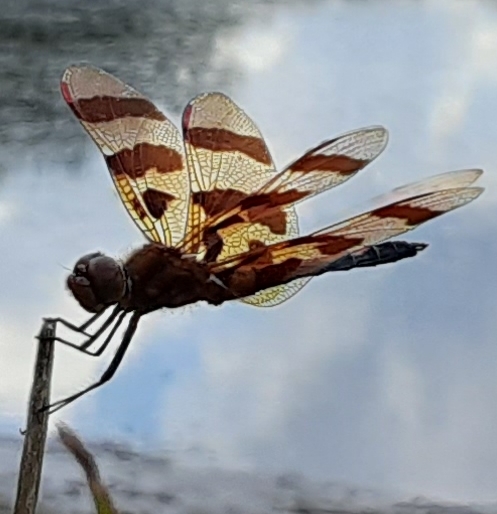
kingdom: Animalia
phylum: Arthropoda
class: Insecta
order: Odonata
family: Libellulidae
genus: Celithemis
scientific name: Celithemis eponina
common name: Halloween pennant
